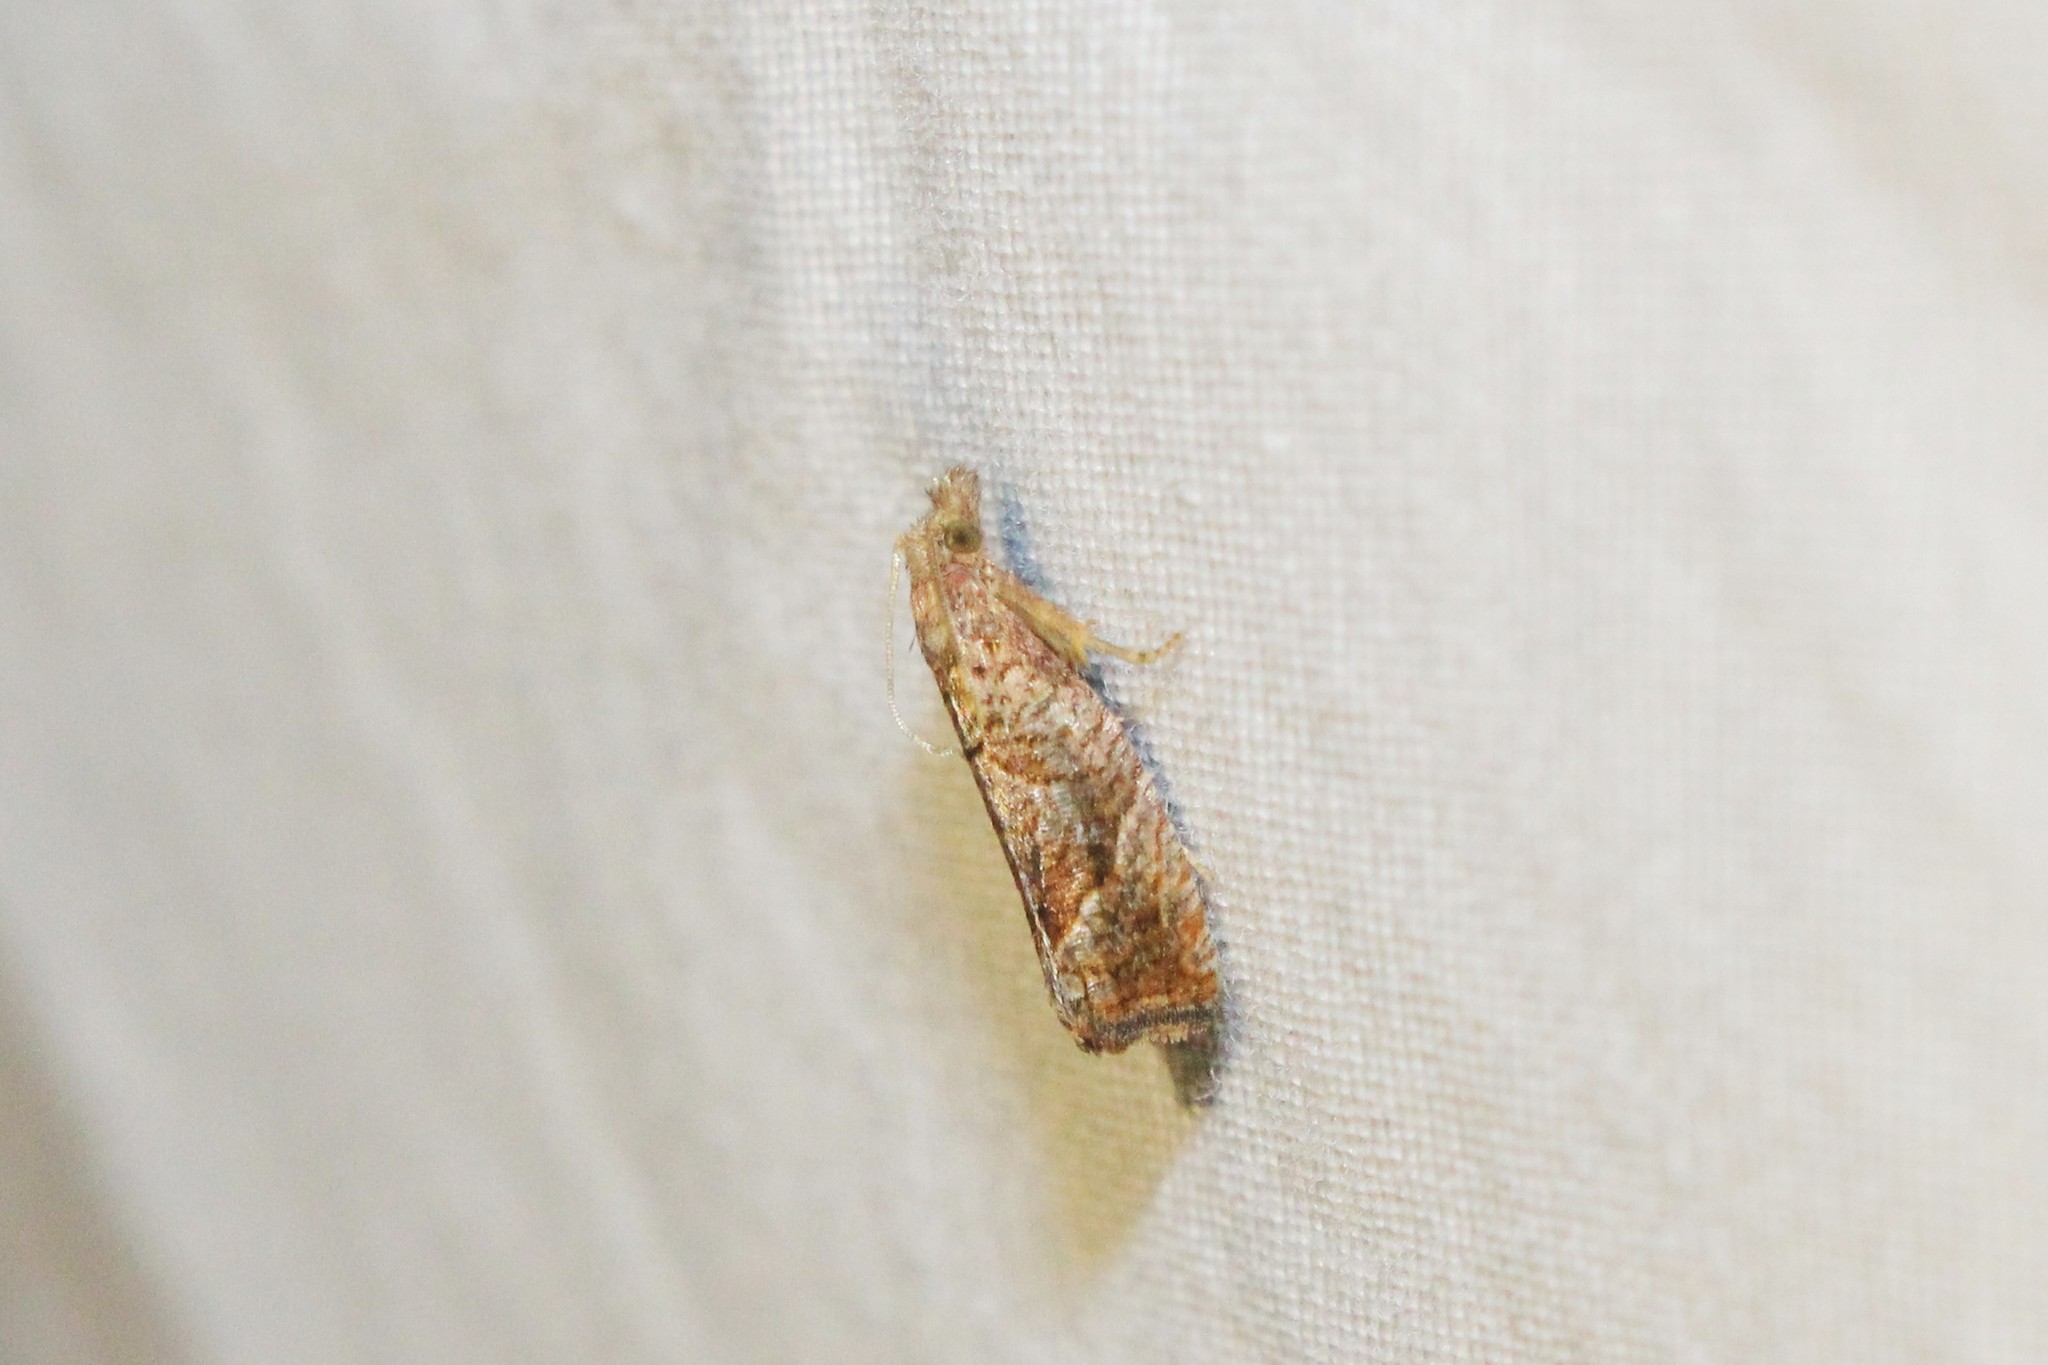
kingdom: Animalia
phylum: Arthropoda
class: Insecta
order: Lepidoptera
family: Tortricidae
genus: Pelochrista
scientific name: Pelochrista derelicta
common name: Derelict pelochrista moth
